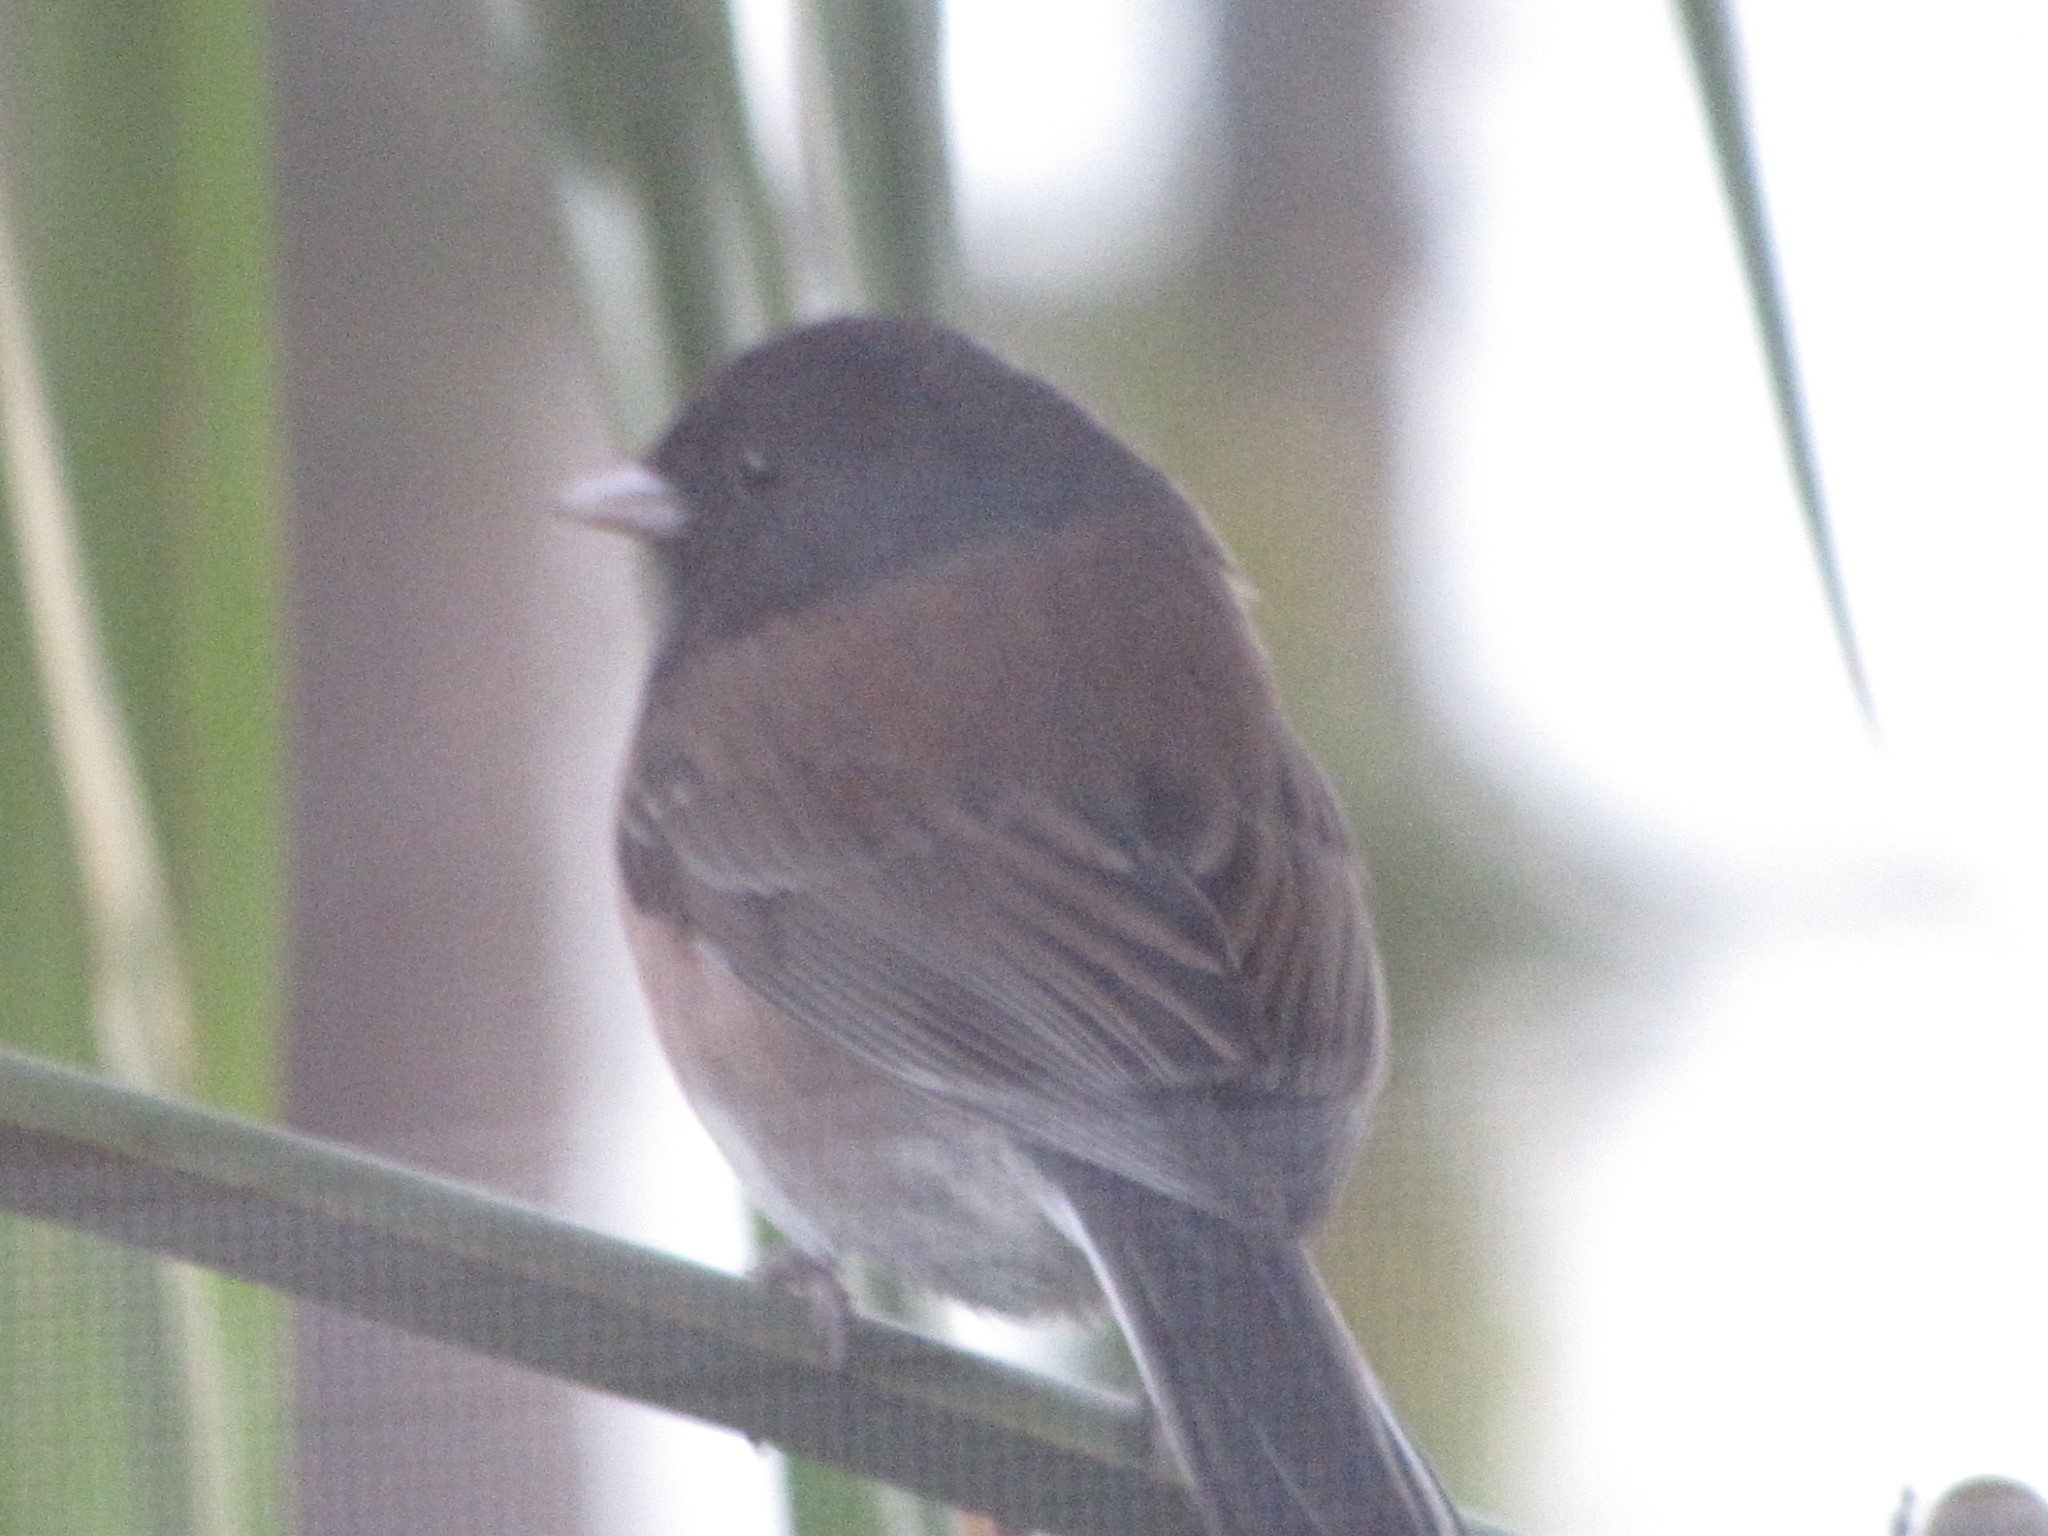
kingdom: Animalia
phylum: Chordata
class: Aves
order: Passeriformes
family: Passerellidae
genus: Junco
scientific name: Junco hyemalis
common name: Dark-eyed junco
